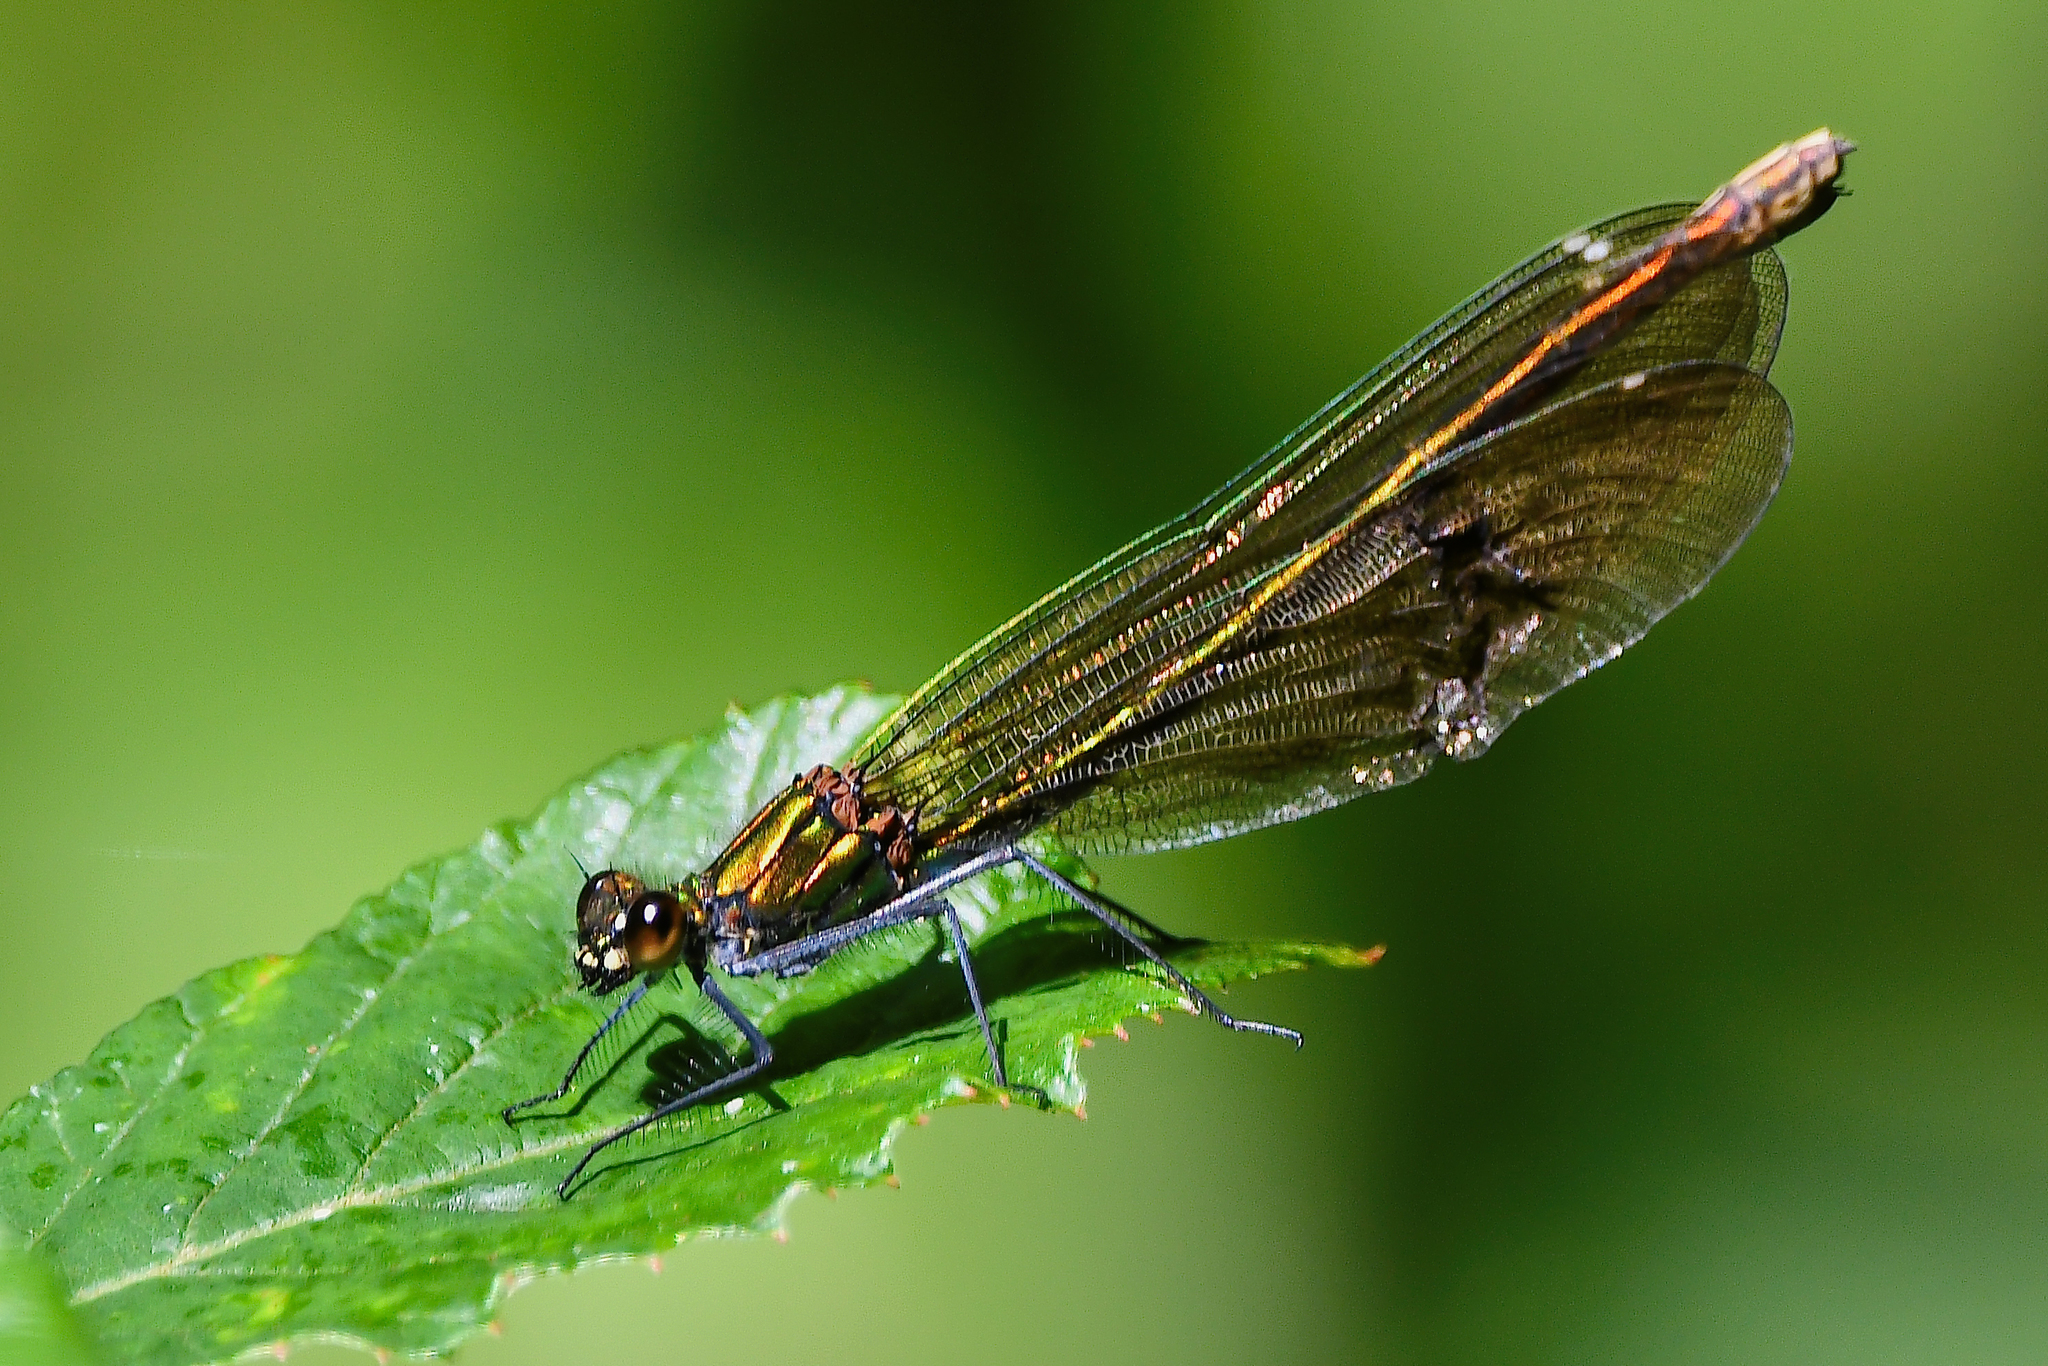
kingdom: Animalia
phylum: Arthropoda
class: Insecta
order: Odonata
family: Calopterygidae
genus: Calopteryx
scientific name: Calopteryx splendens
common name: Banded demoiselle
